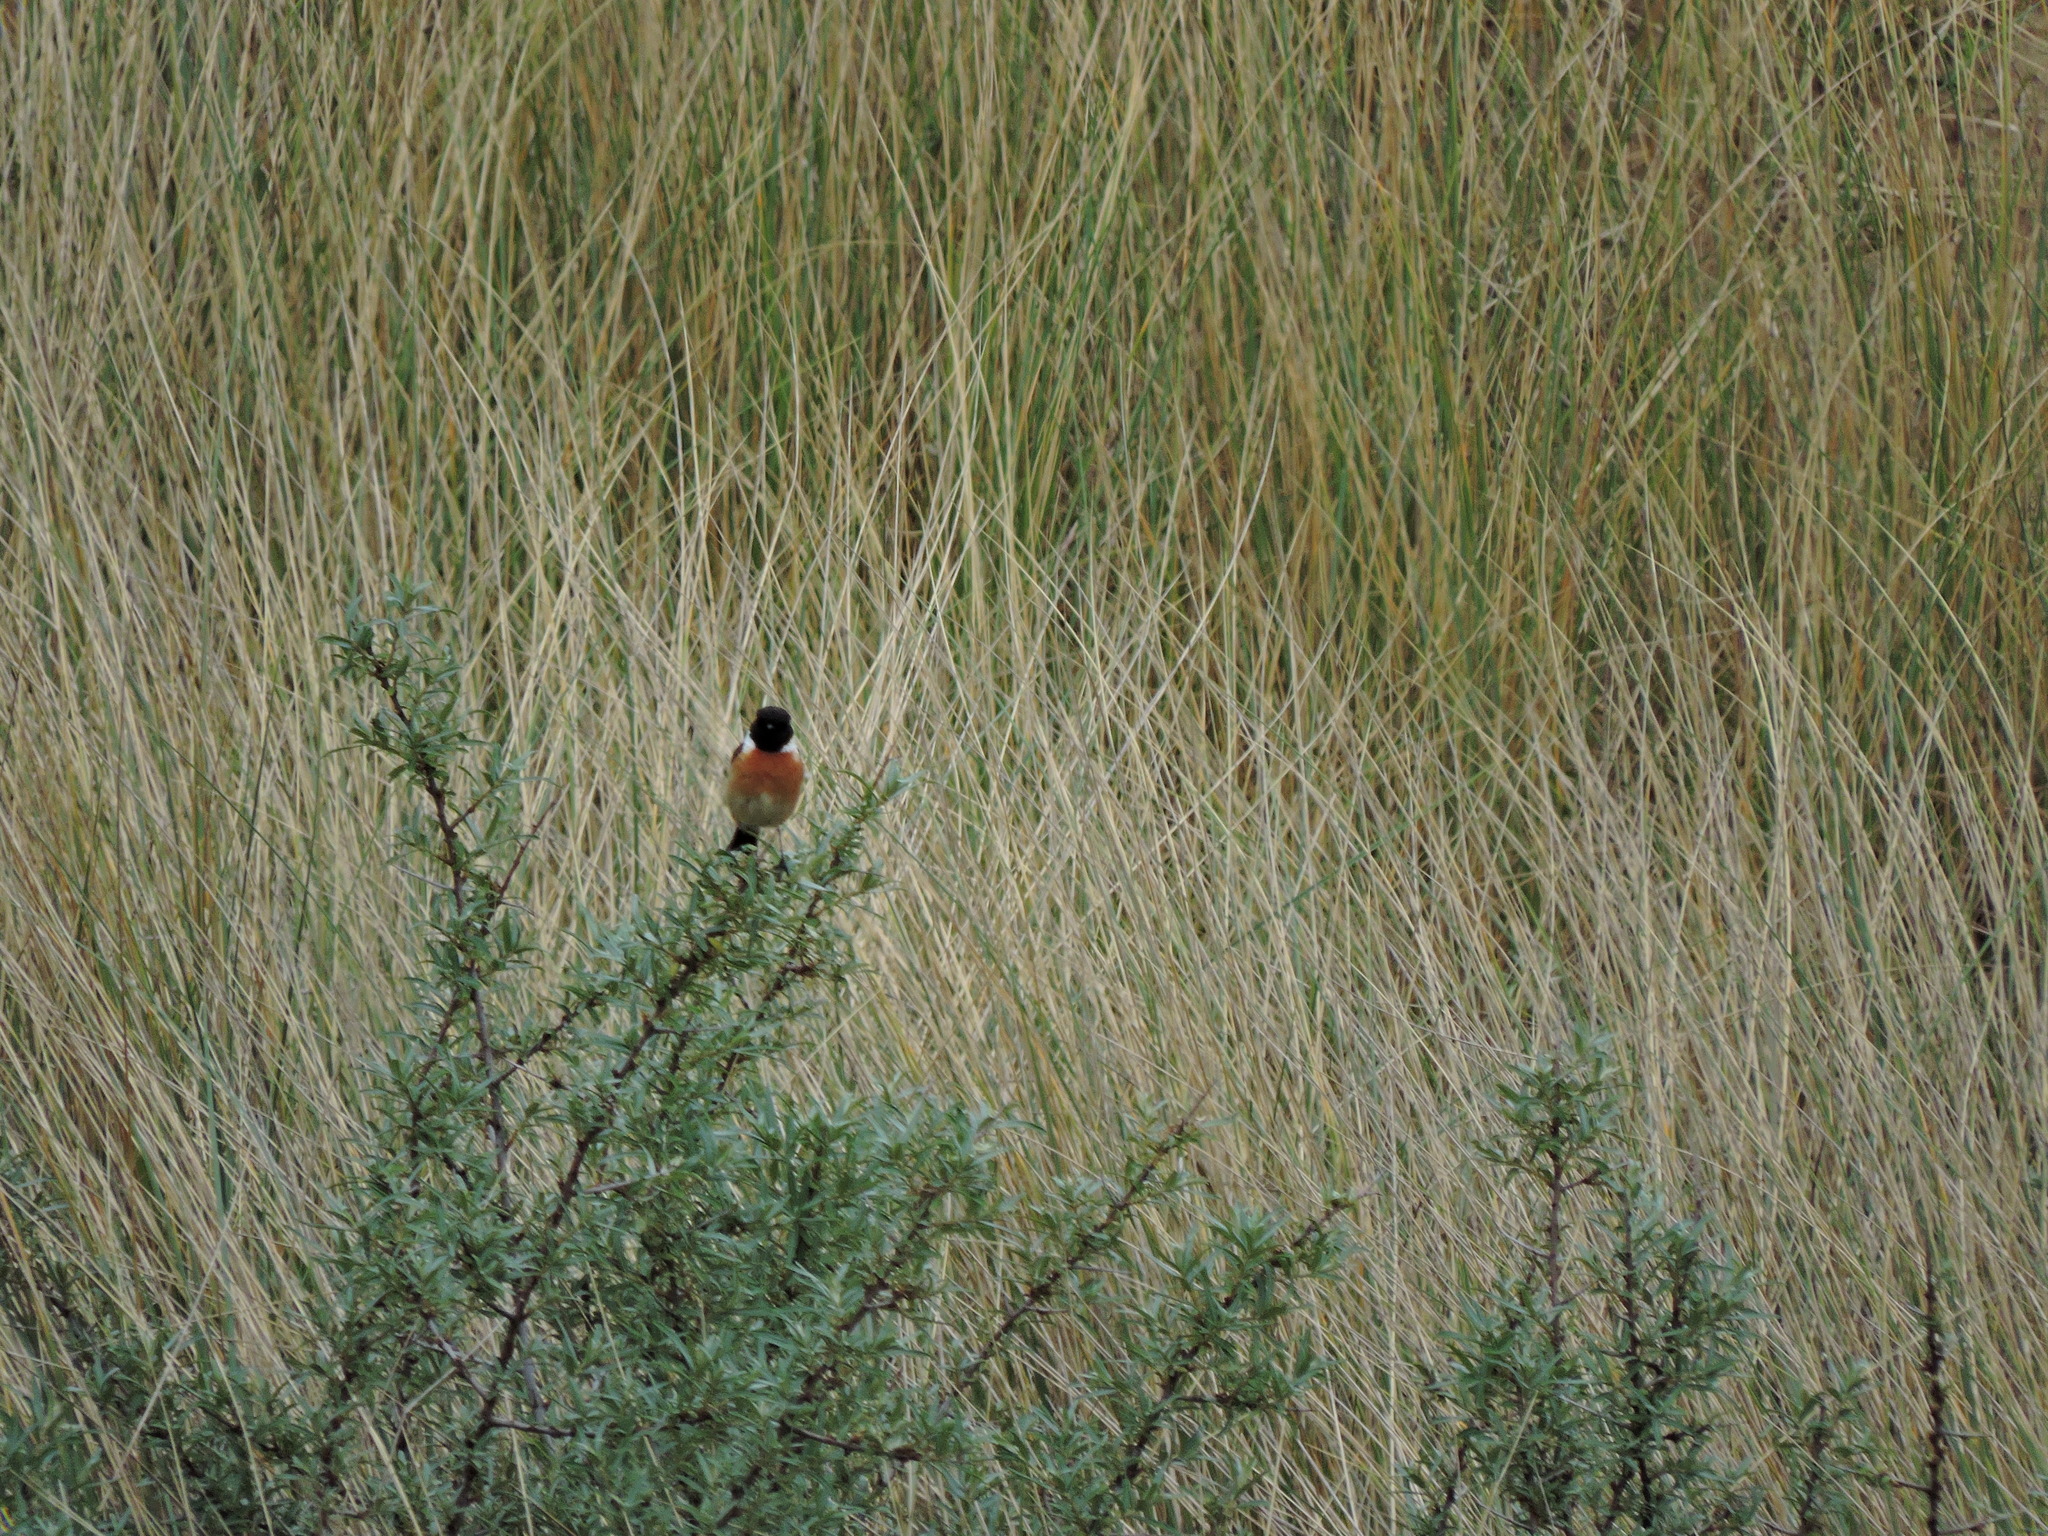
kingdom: Animalia
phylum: Chordata
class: Aves
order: Passeriformes
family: Muscicapidae
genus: Saxicola
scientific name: Saxicola rubicola
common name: European stonechat
